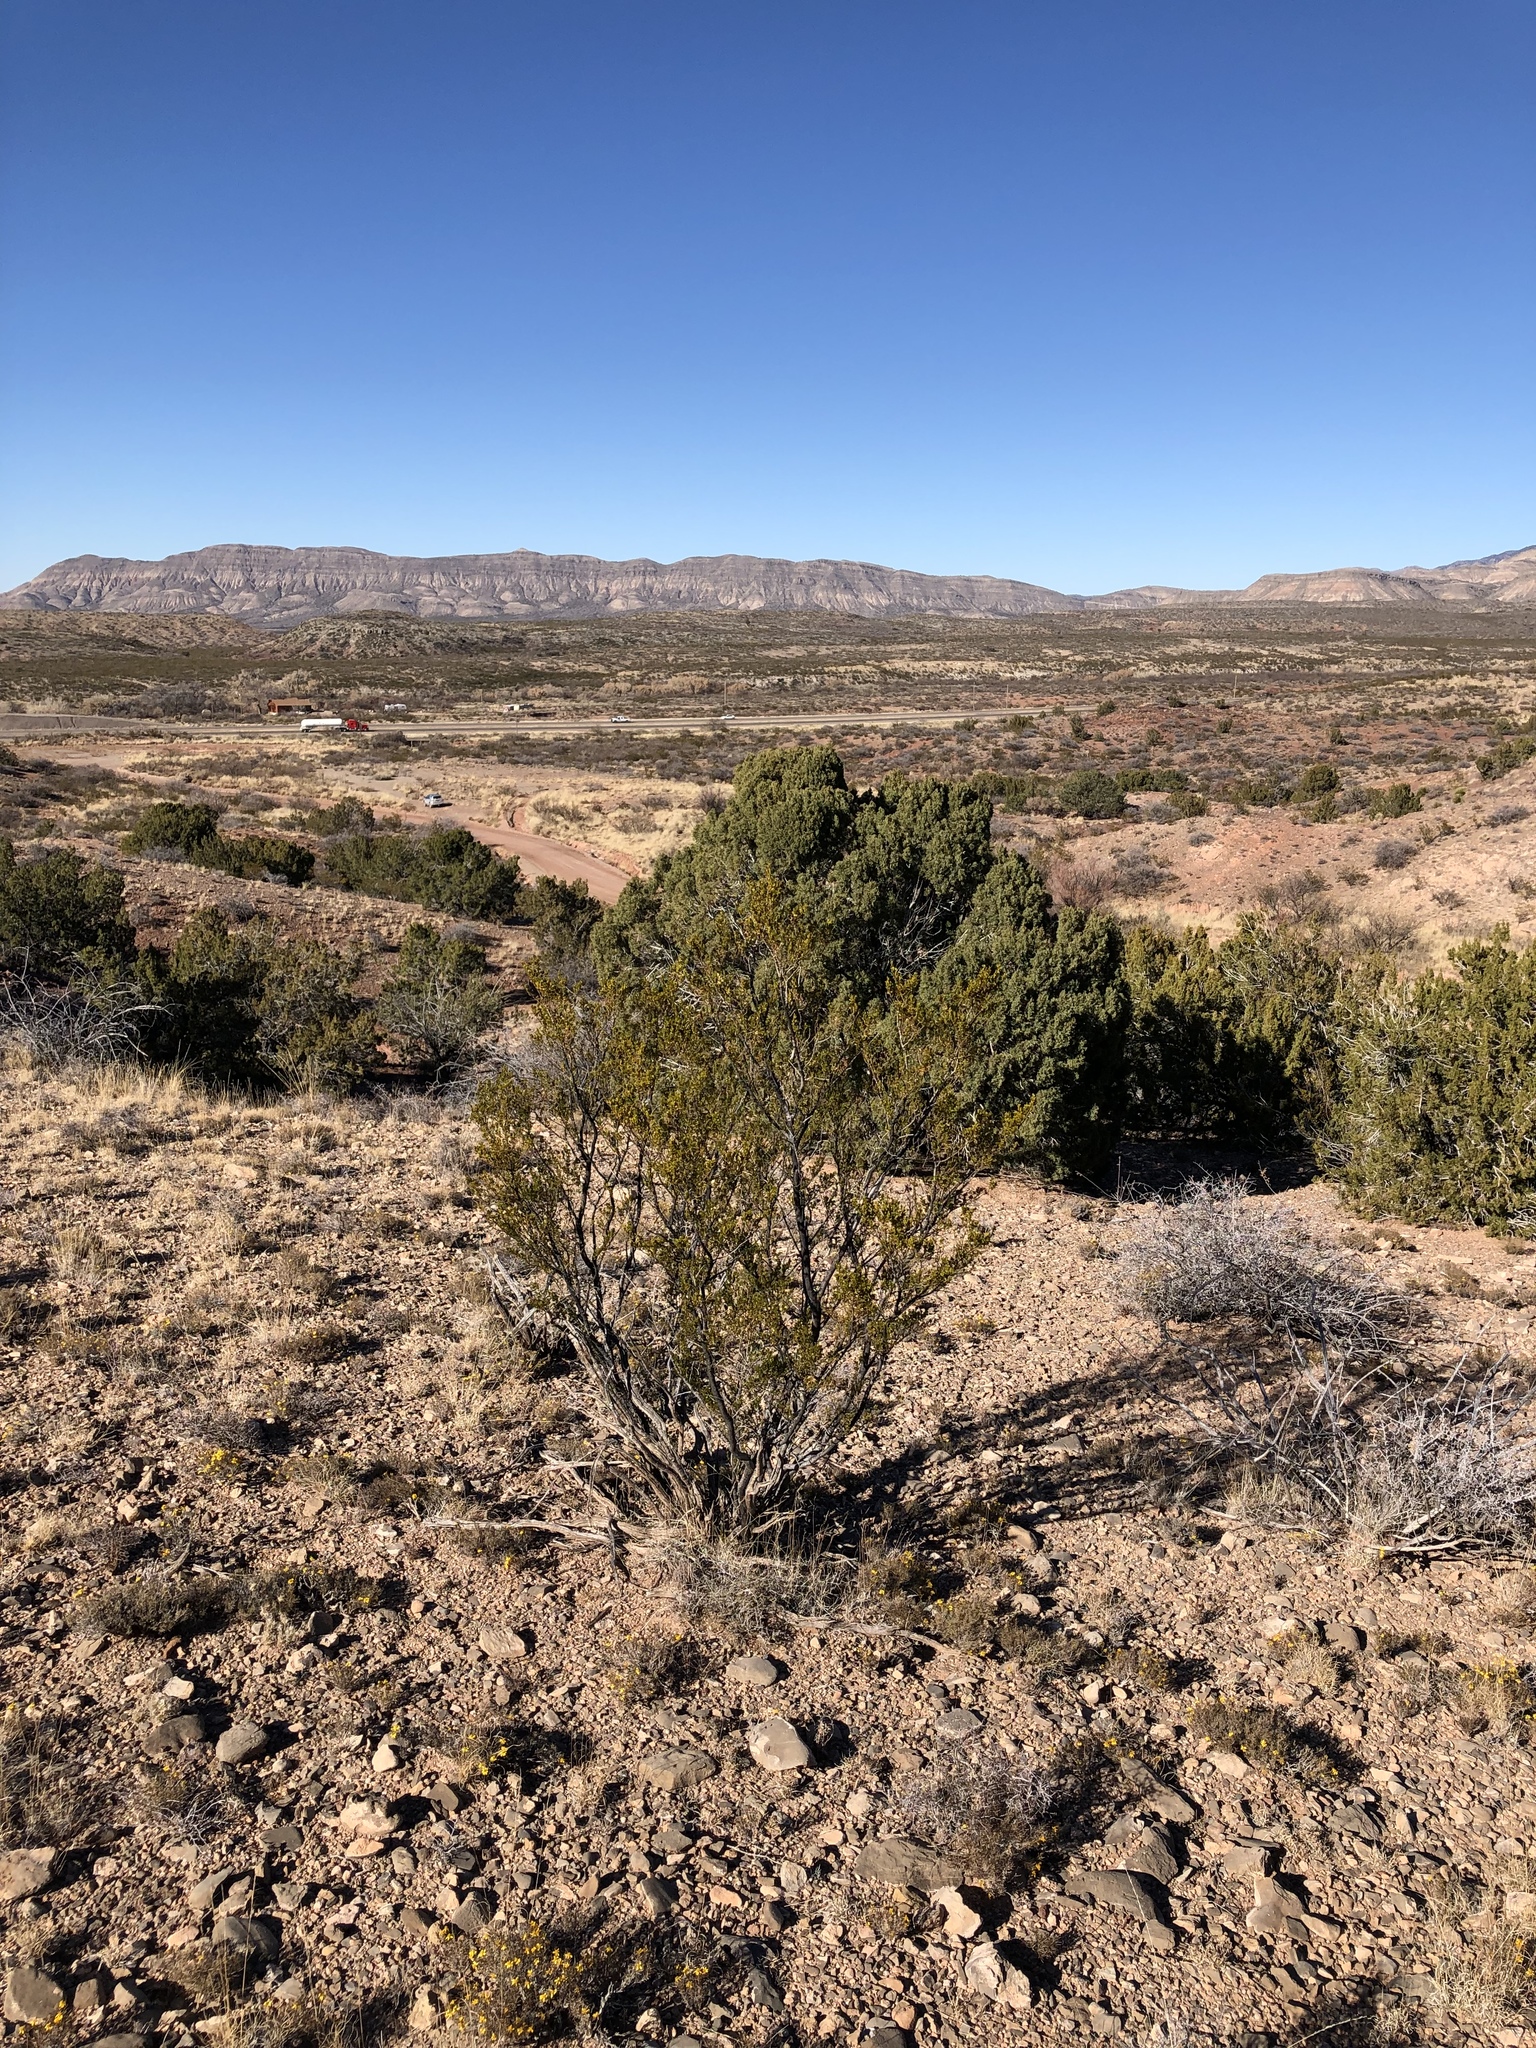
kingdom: Plantae
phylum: Tracheophyta
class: Magnoliopsida
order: Zygophyllales
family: Zygophyllaceae
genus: Larrea
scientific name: Larrea tridentata
